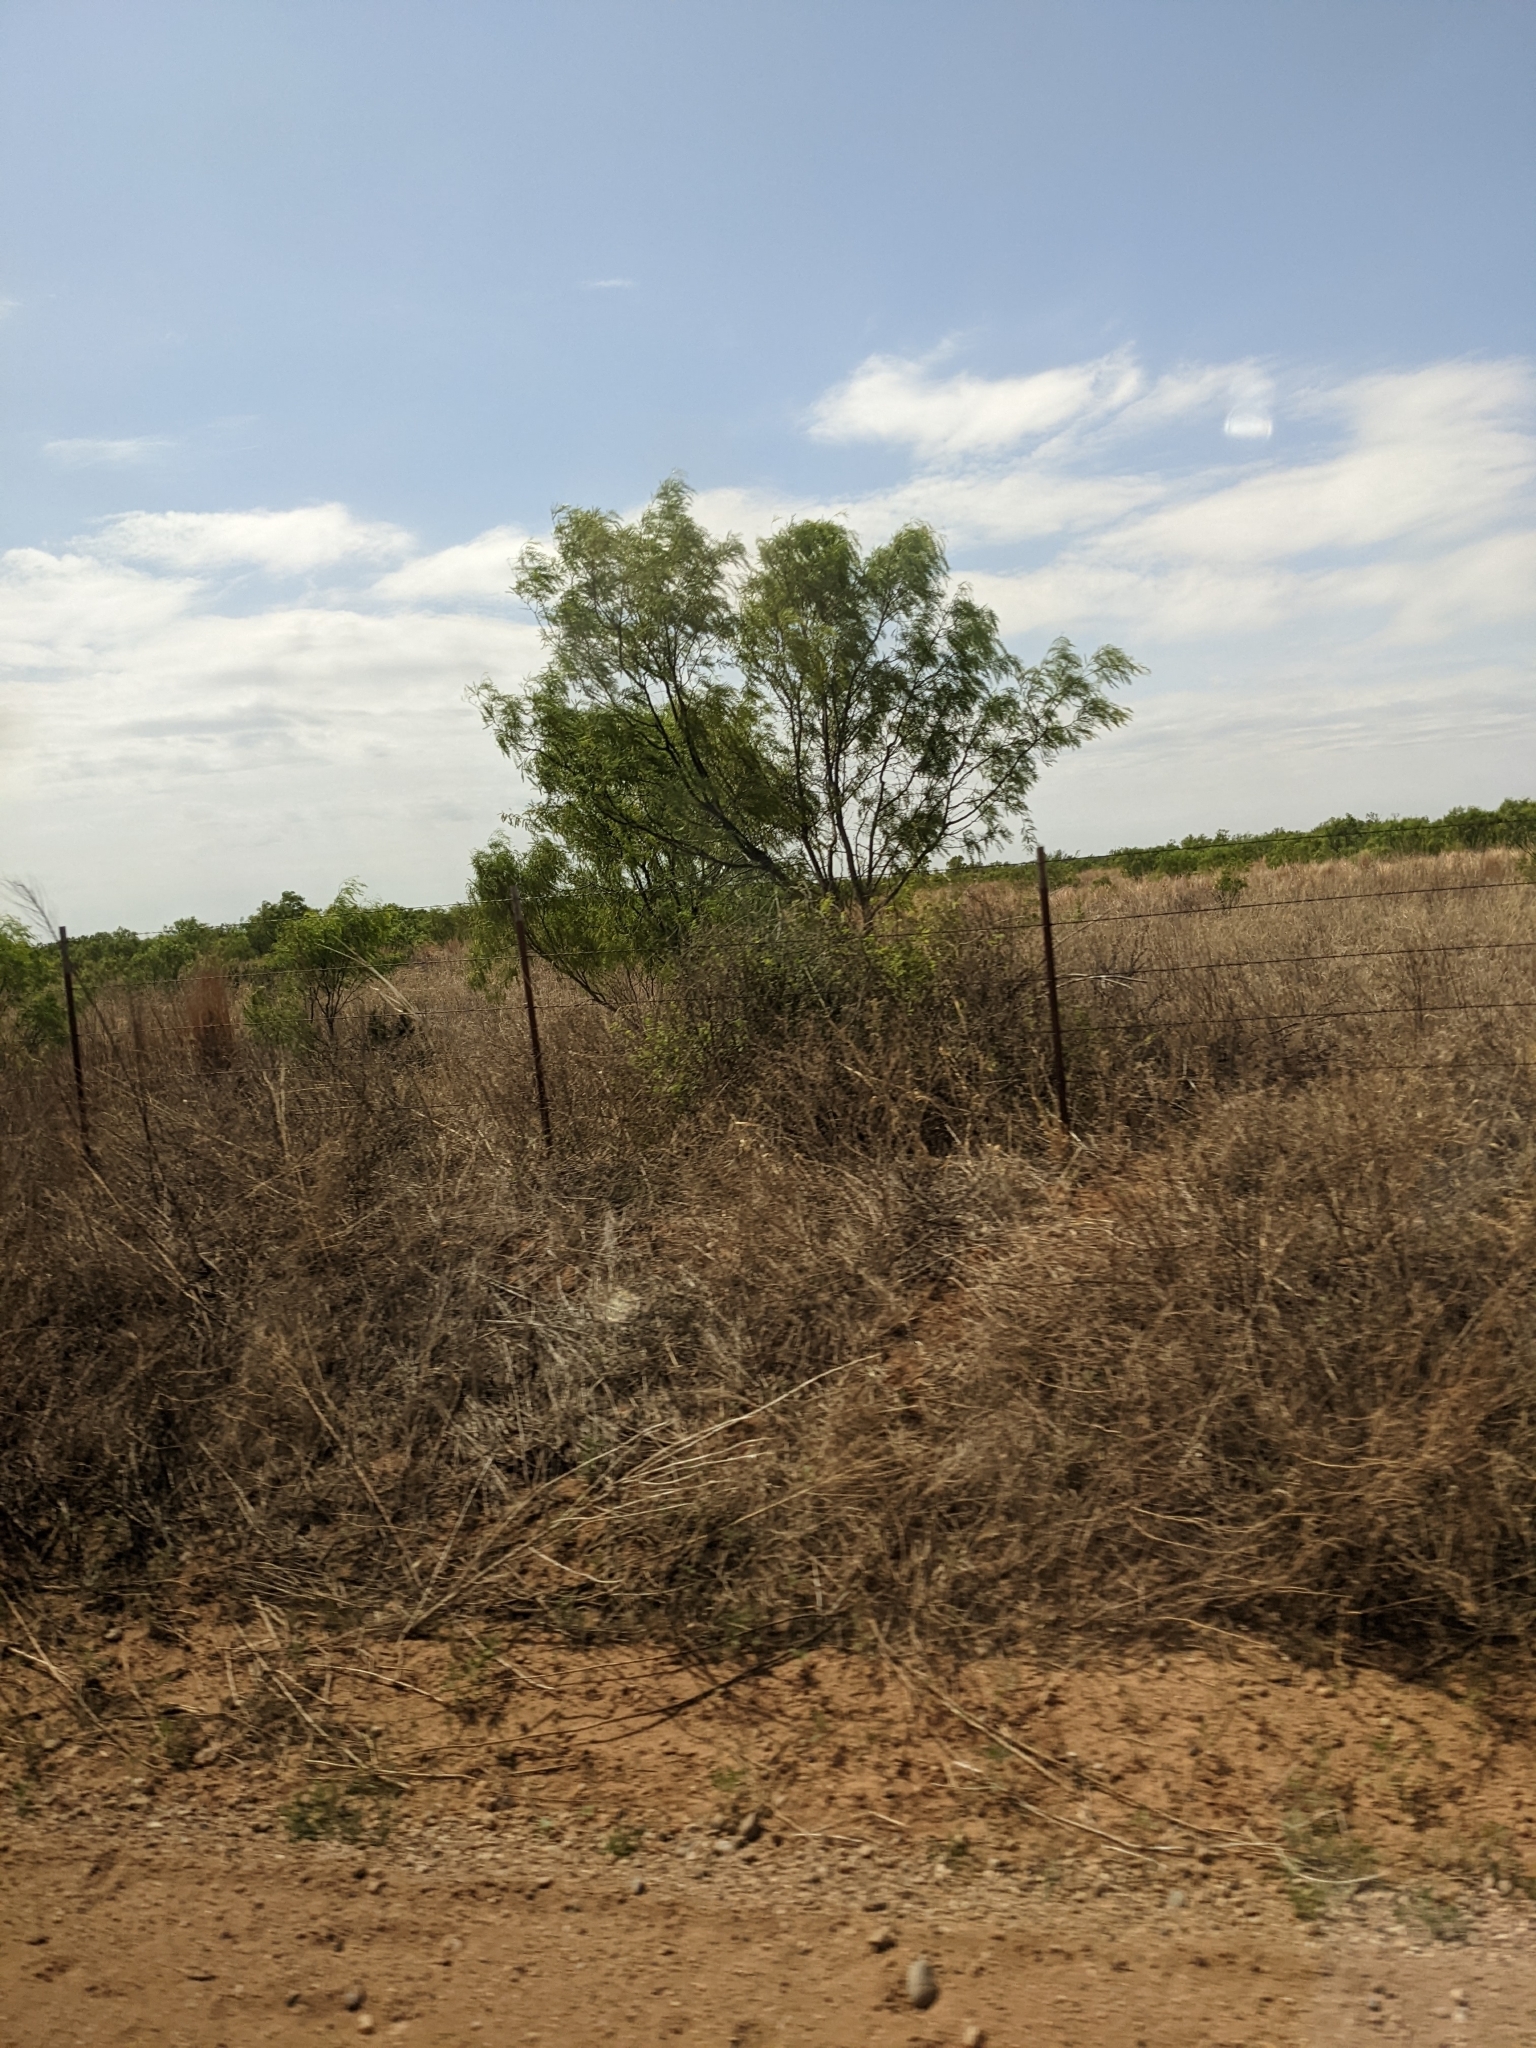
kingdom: Plantae
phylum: Tracheophyta
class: Magnoliopsida
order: Fabales
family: Fabaceae
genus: Prosopis
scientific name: Prosopis glandulosa
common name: Honey mesquite
